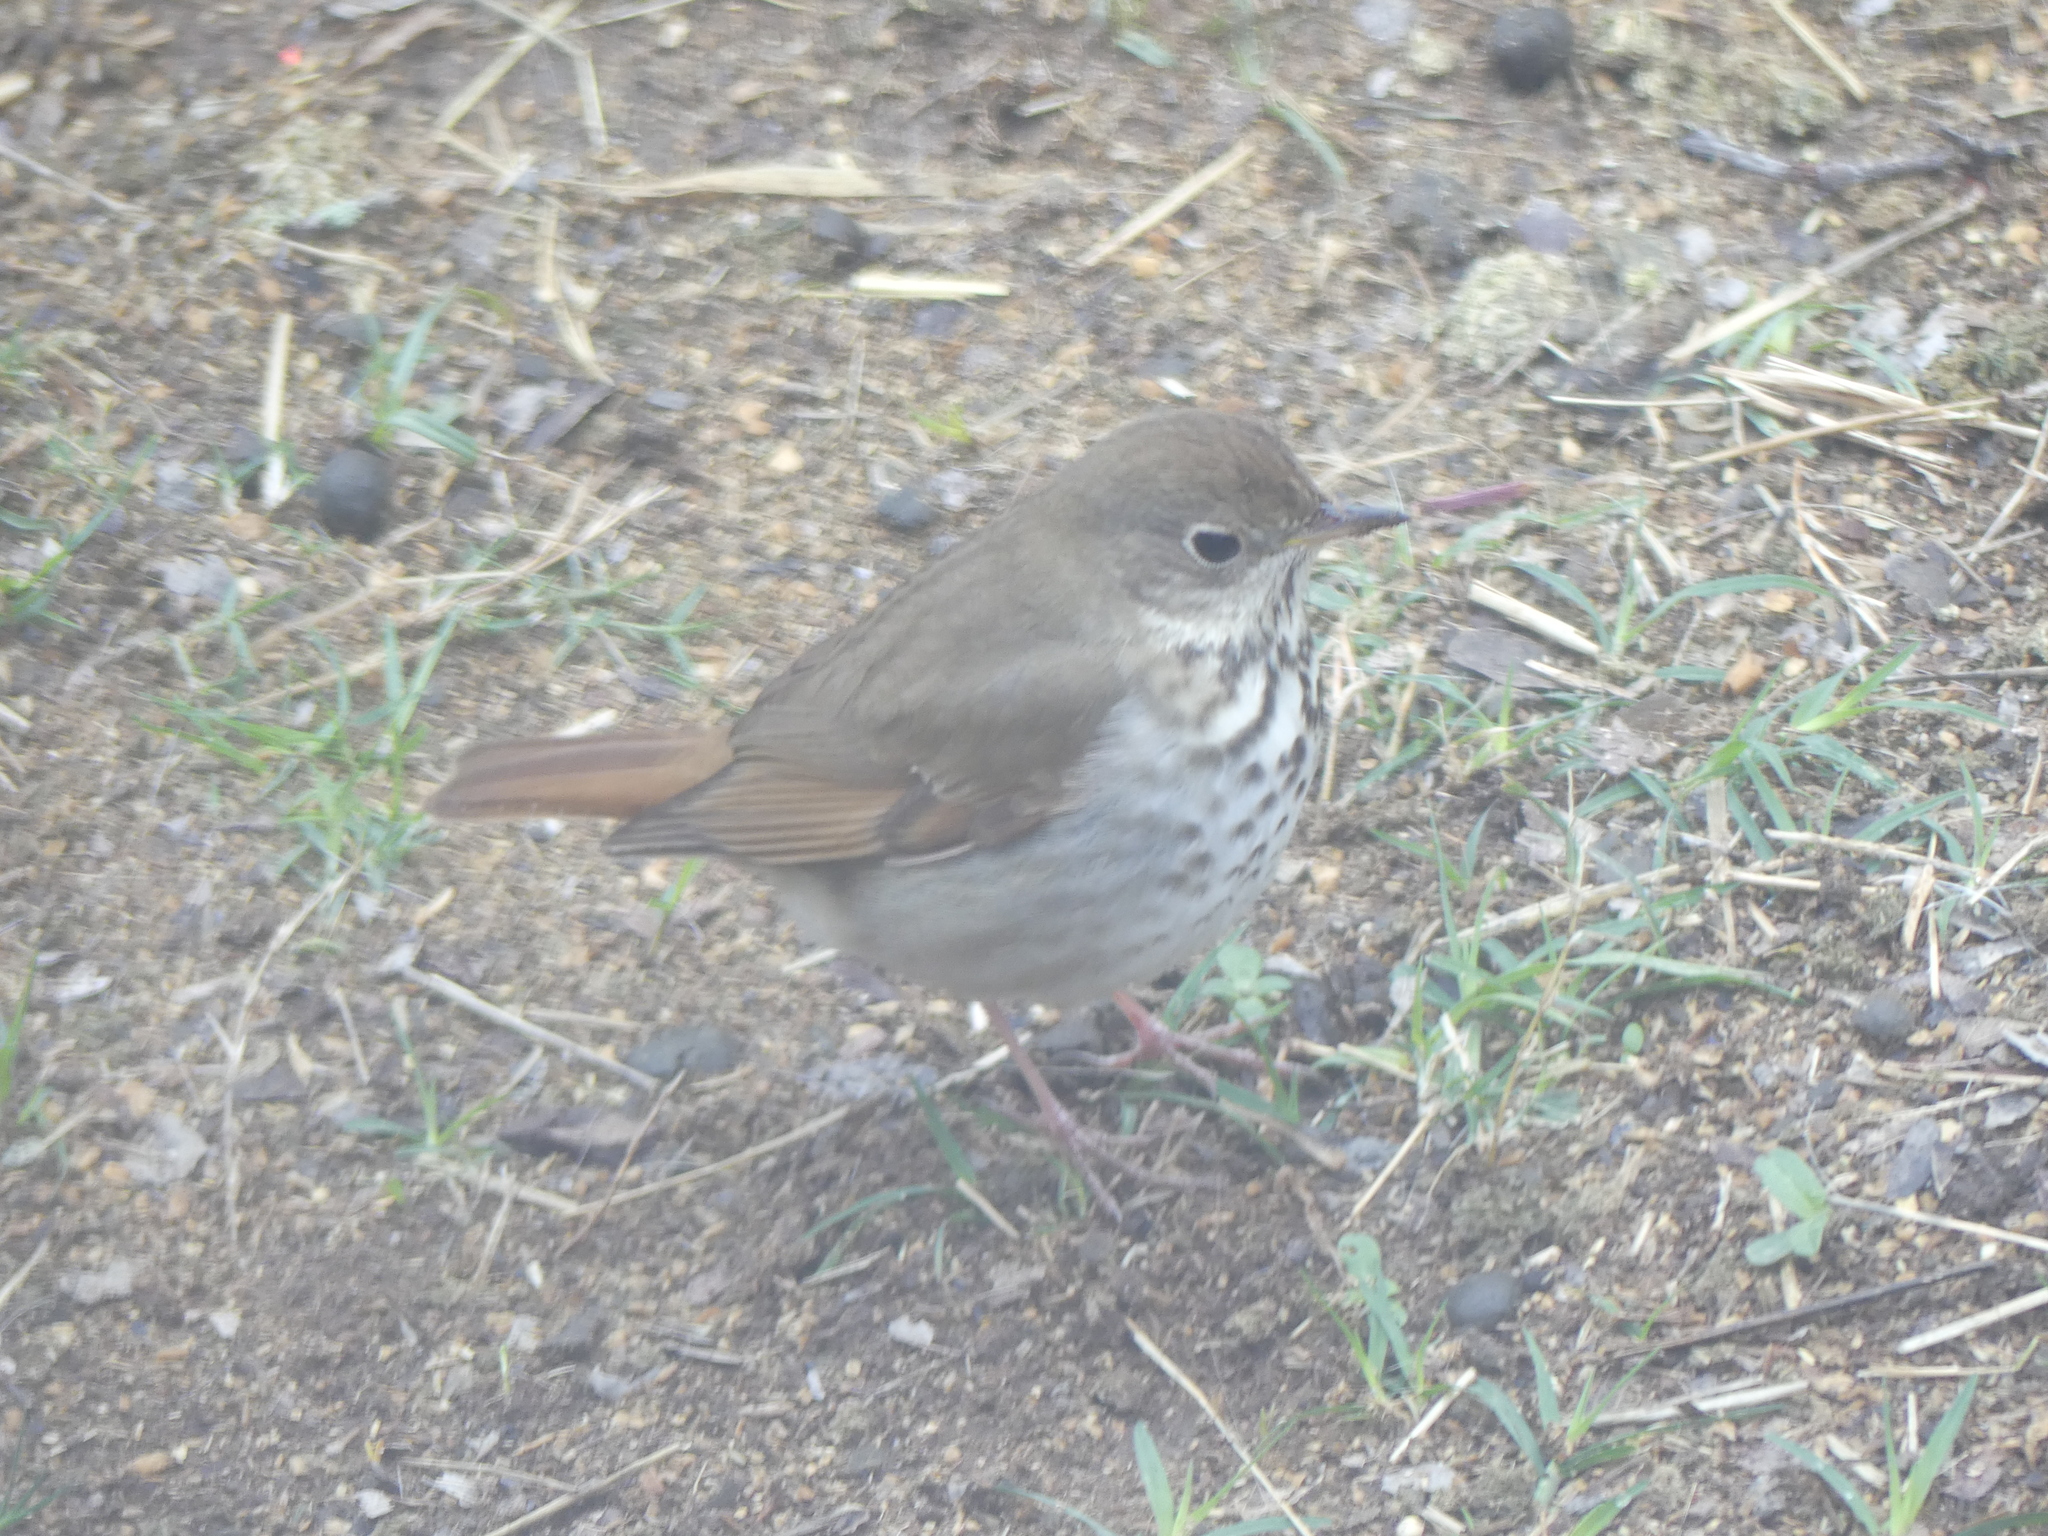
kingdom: Animalia
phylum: Chordata
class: Aves
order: Passeriformes
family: Turdidae
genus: Catharus
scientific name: Catharus guttatus
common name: Hermit thrush
